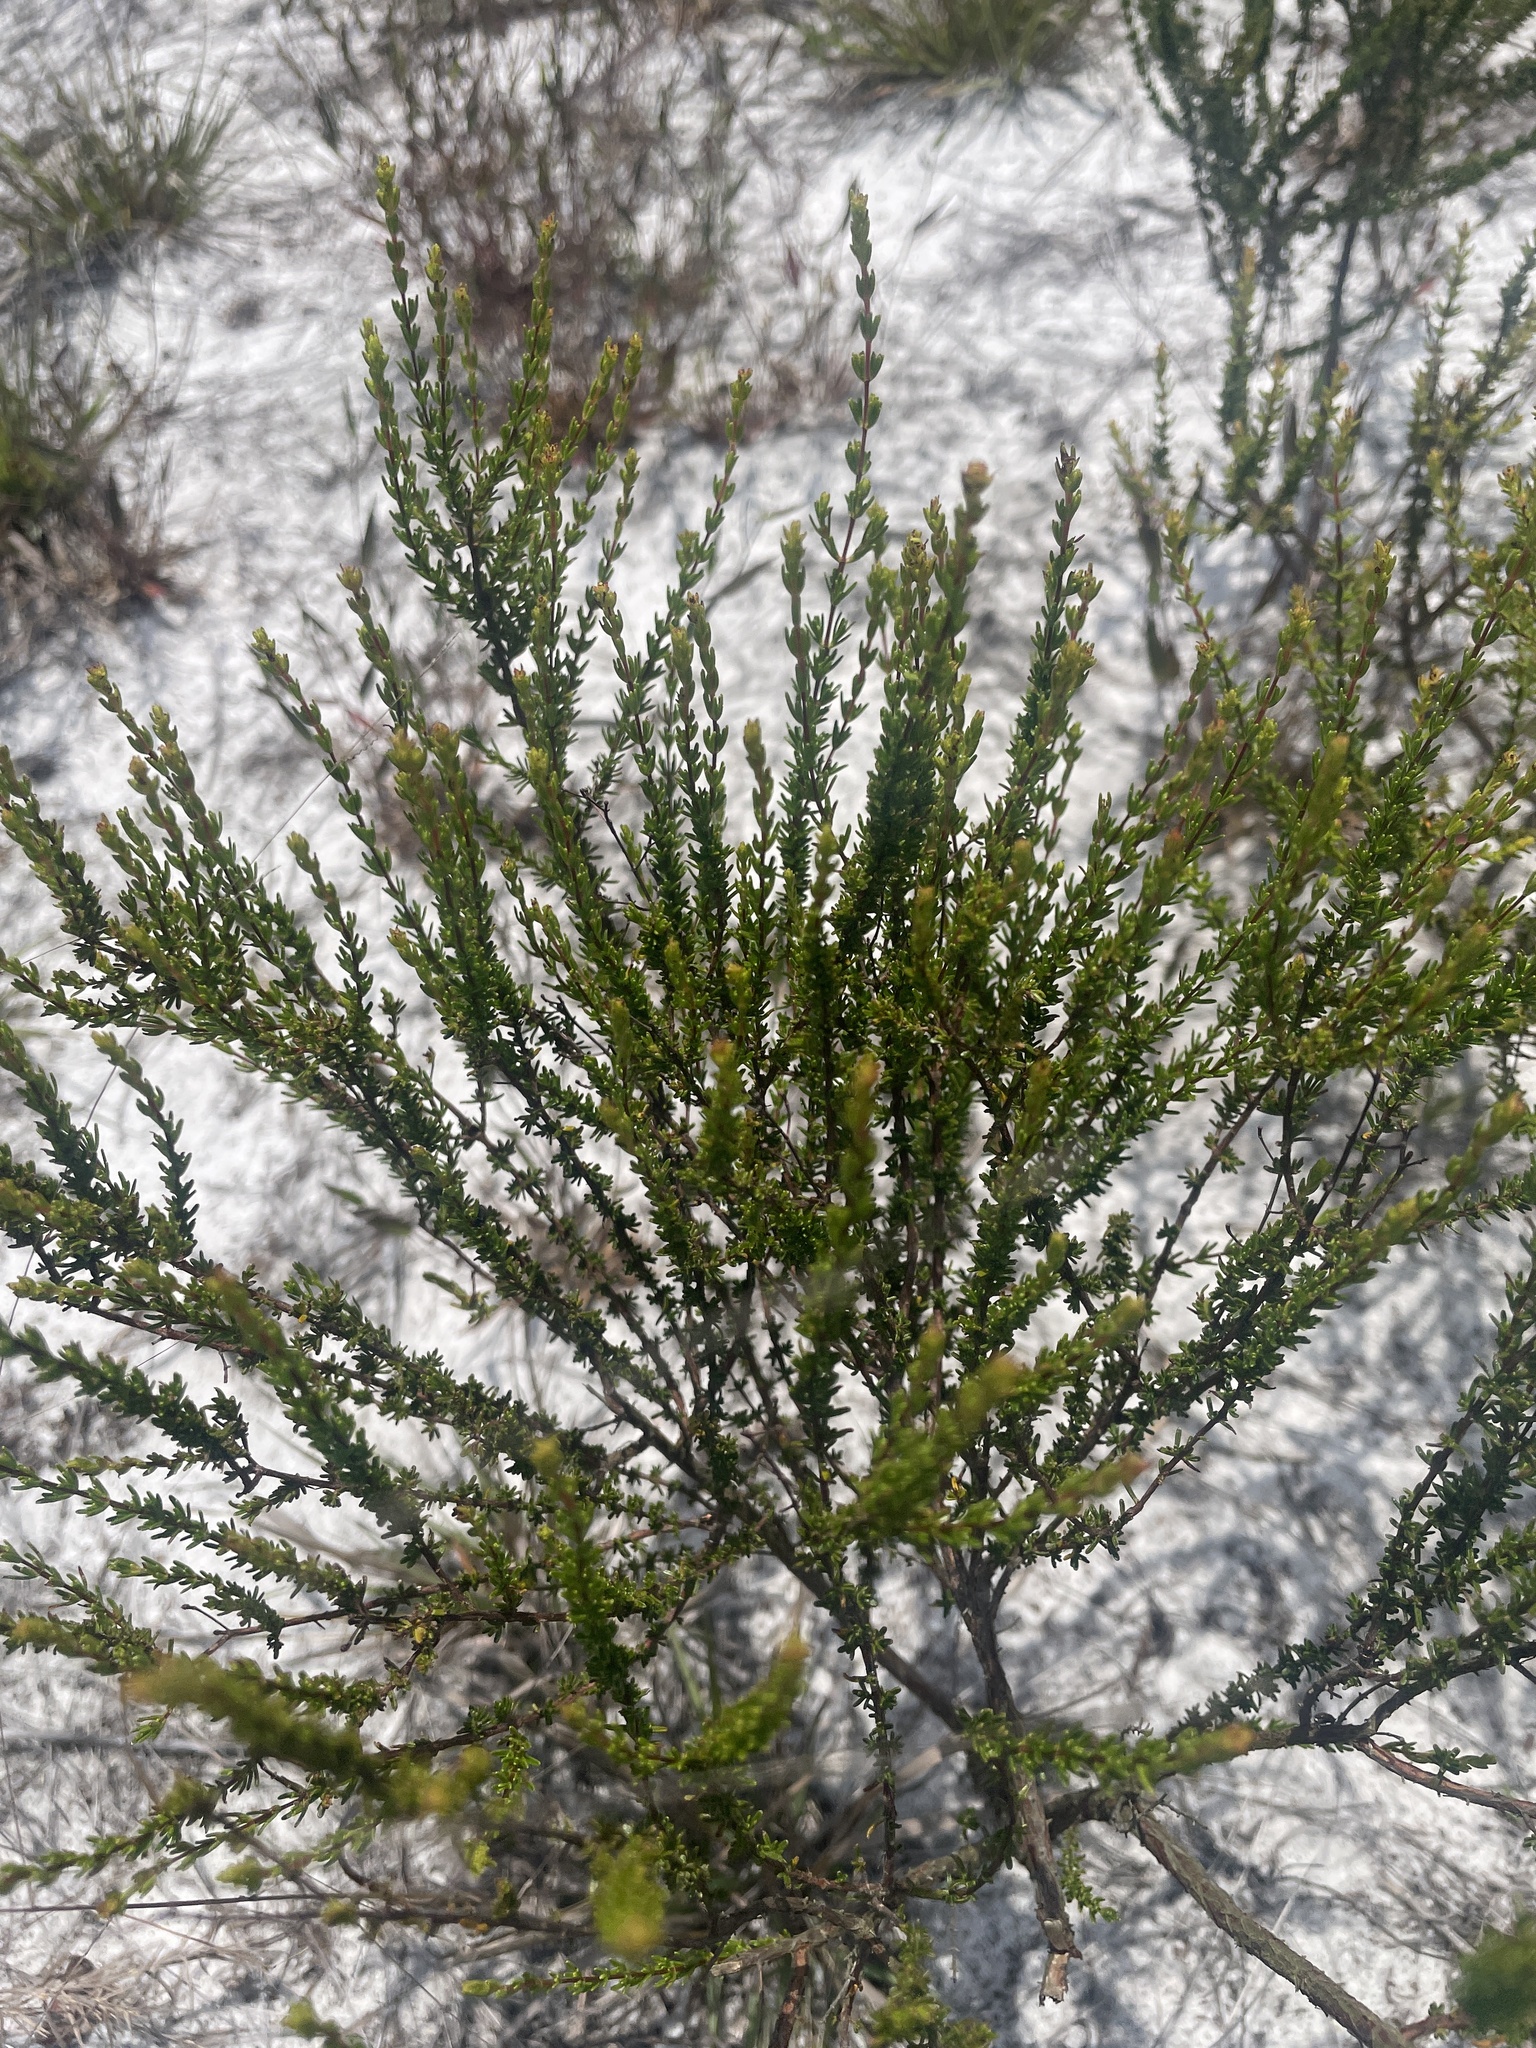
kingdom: Plantae
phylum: Tracheophyta
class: Magnoliopsida
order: Malpighiales
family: Hypericaceae
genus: Hypericum
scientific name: Hypericum tenuifolium
